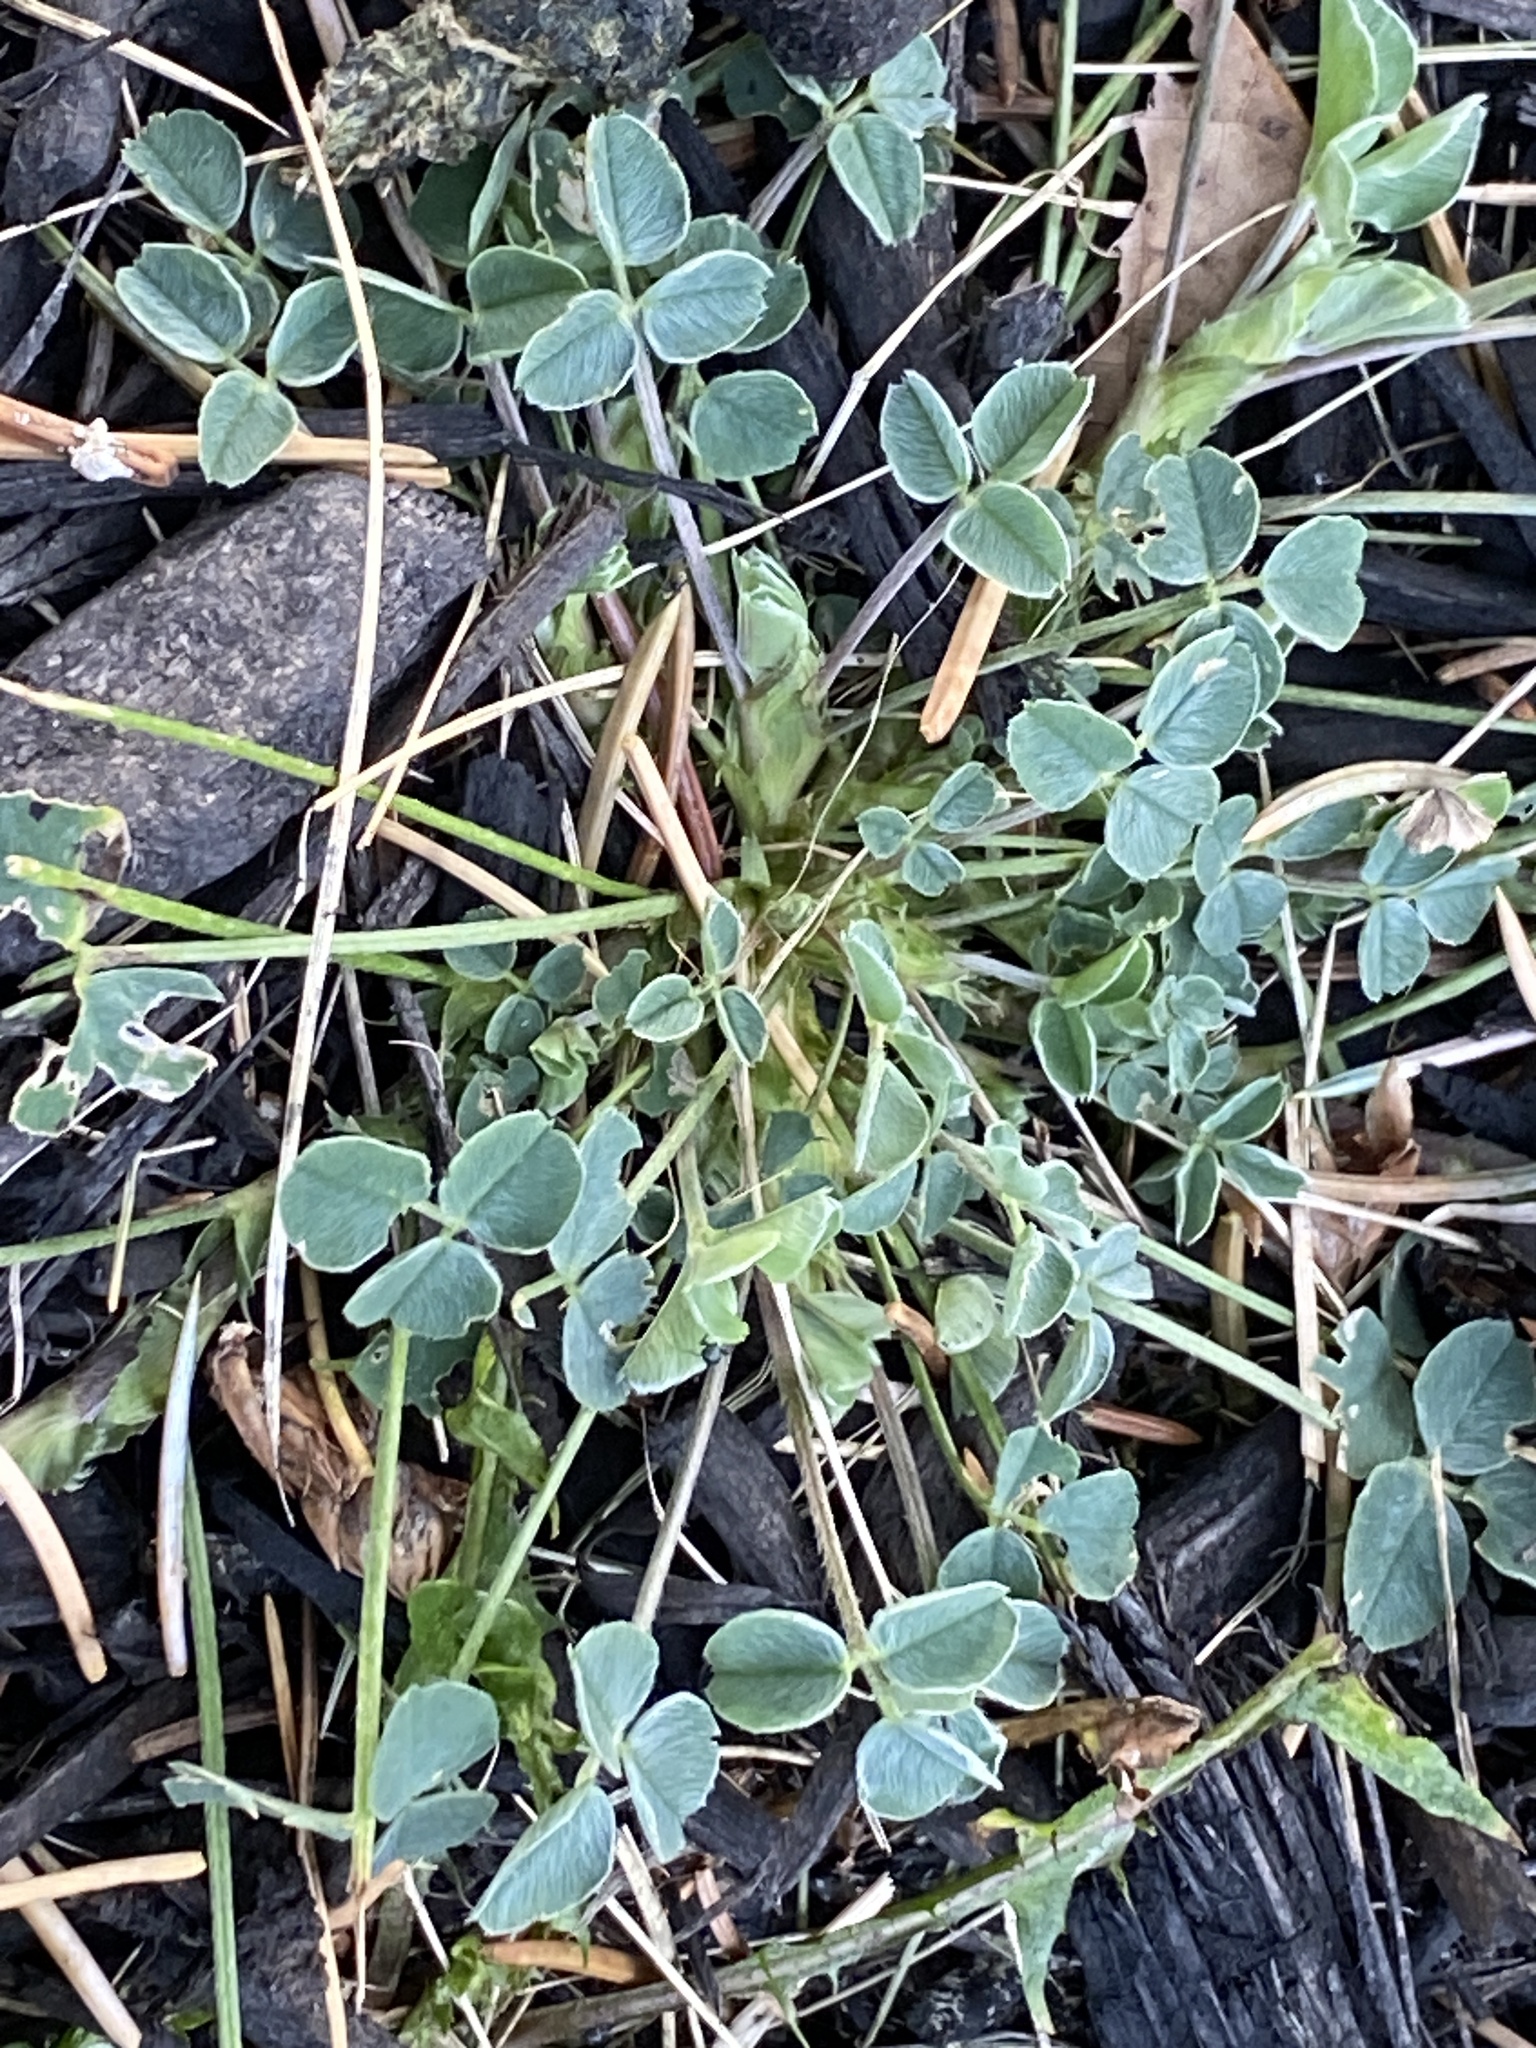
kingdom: Plantae
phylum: Tracheophyta
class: Magnoliopsida
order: Fabales
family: Fabaceae
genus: Medicago
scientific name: Medicago lupulina
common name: Black medick
